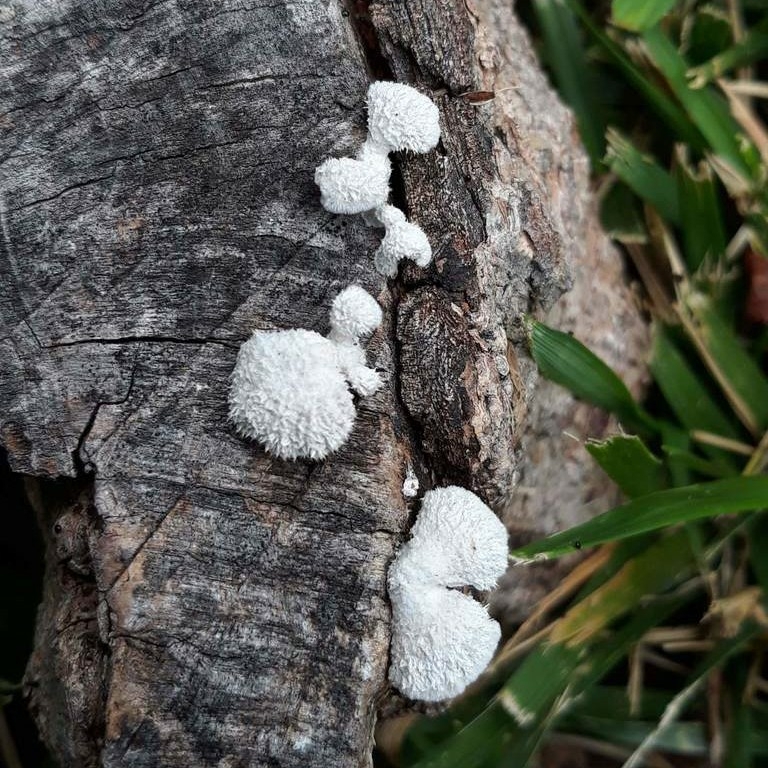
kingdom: Fungi
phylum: Basidiomycota
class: Agaricomycetes
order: Agaricales
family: Schizophyllaceae
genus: Schizophyllum
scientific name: Schizophyllum commune
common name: Common porecrust
